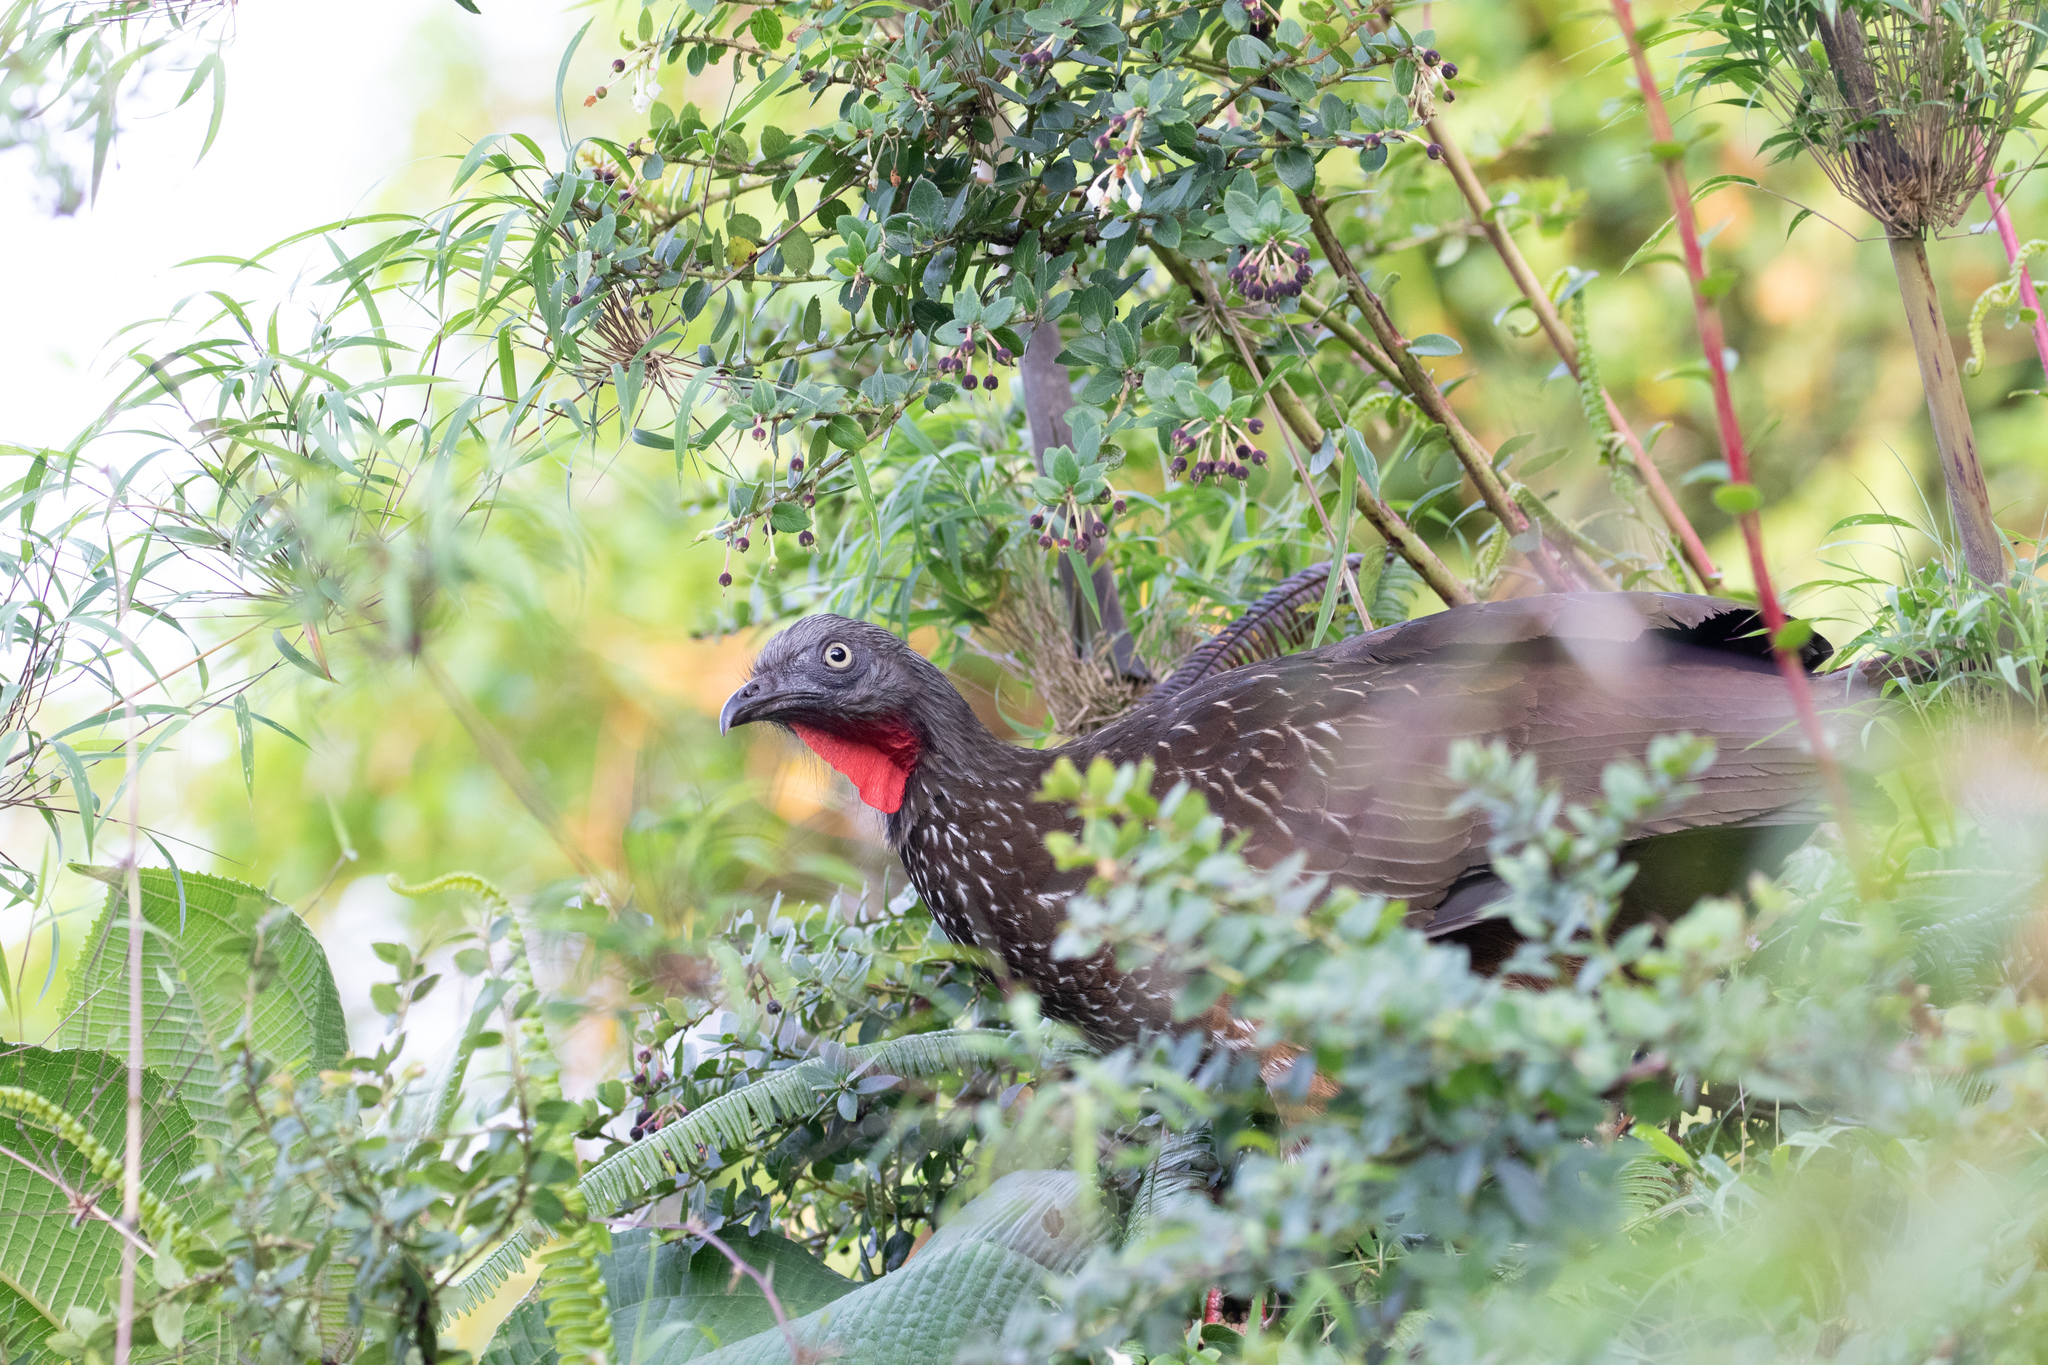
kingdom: Animalia
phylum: Chordata
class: Aves
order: Galliformes
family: Cracidae
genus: Penelope
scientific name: Penelope argyrotis
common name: Band-tailed guan
